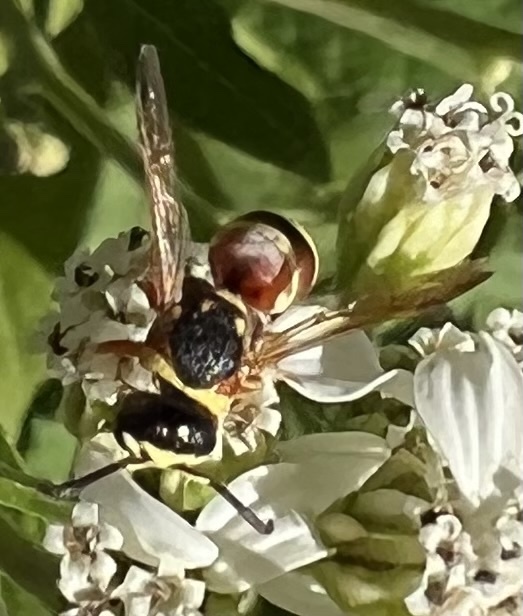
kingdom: Animalia
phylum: Arthropoda
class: Insecta
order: Hymenoptera
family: Eumenidae
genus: Euodynerus
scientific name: Euodynerus annulatus
